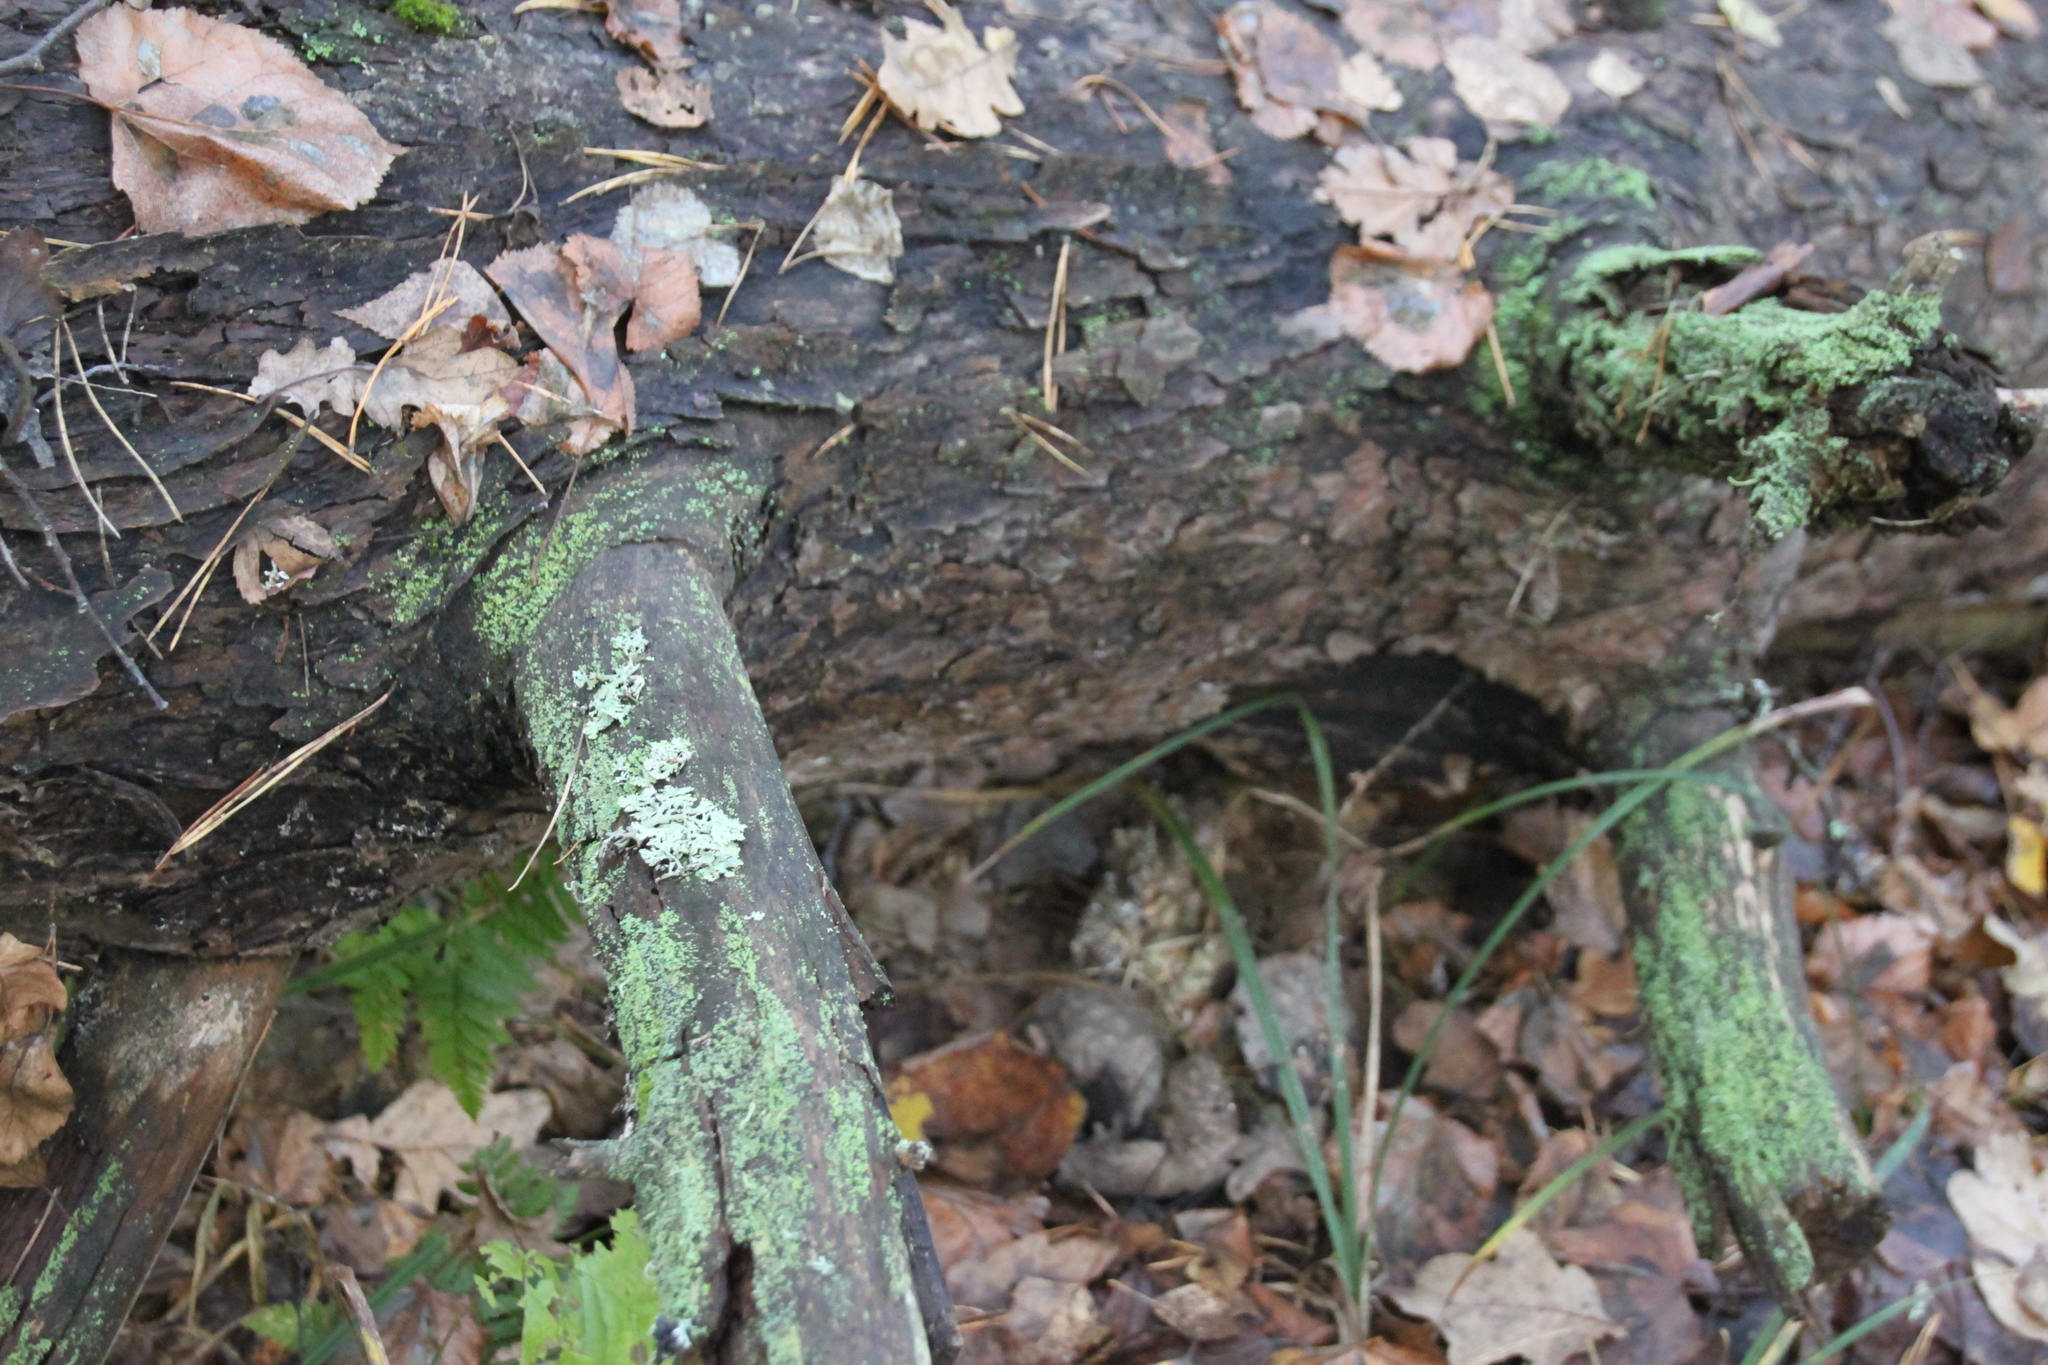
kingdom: Plantae
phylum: Tracheophyta
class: Pinopsida
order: Pinales
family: Pinaceae
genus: Pinus
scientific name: Pinus sylvestris
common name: Scots pine
